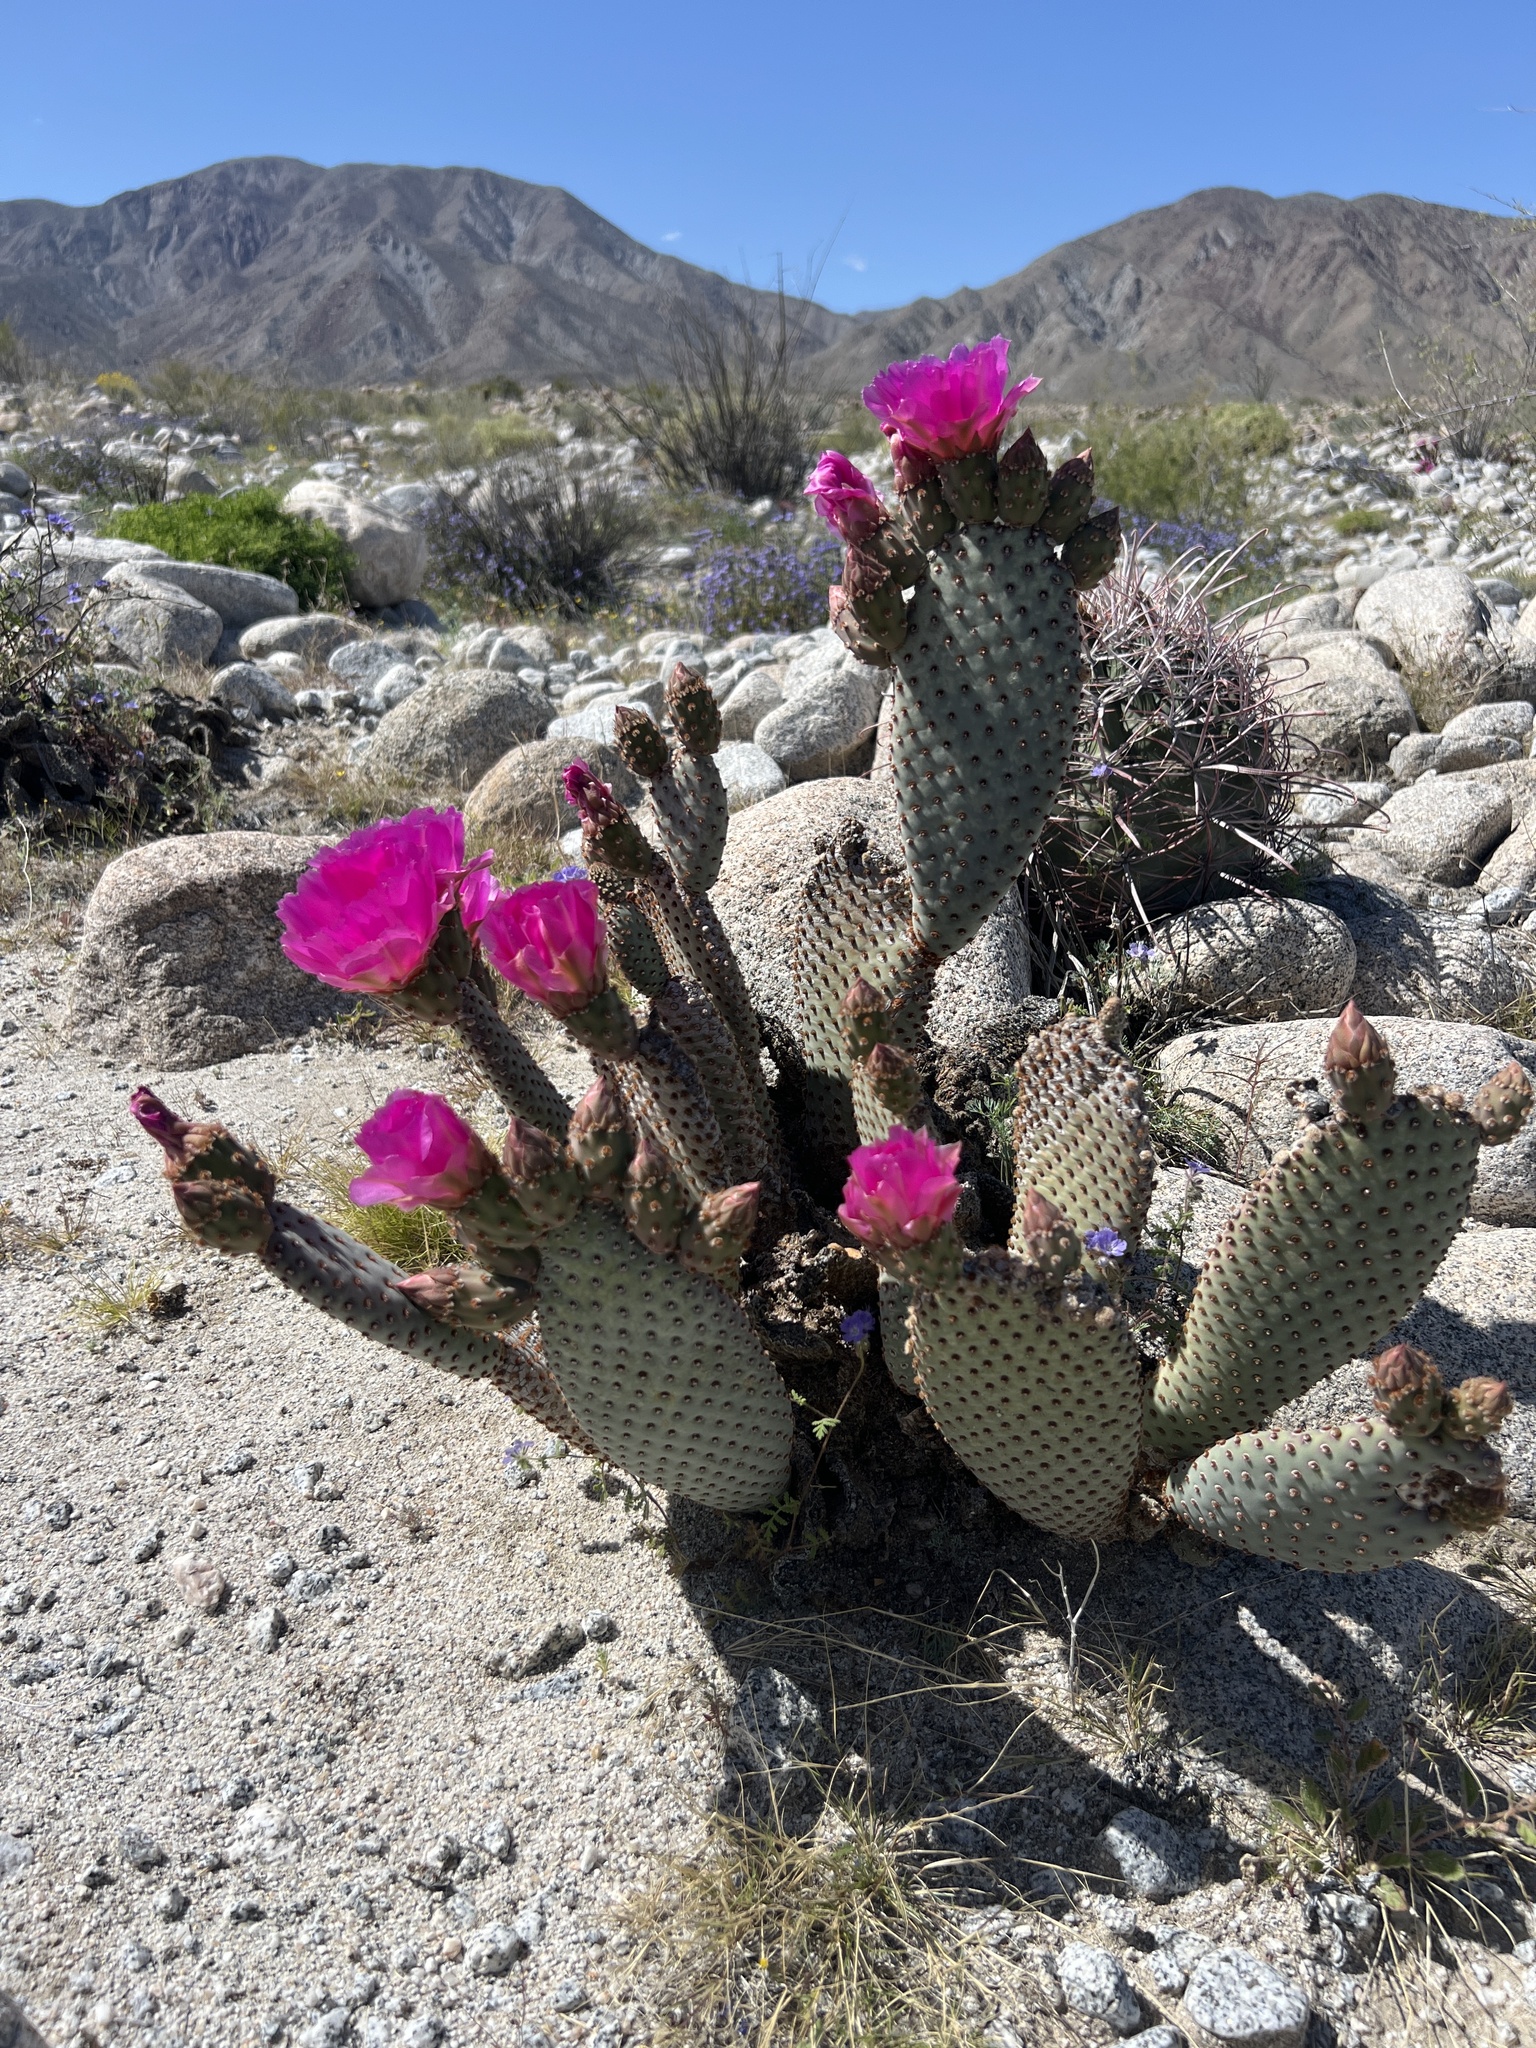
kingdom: Plantae
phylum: Tracheophyta
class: Magnoliopsida
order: Caryophyllales
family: Cactaceae
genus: Opuntia
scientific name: Opuntia basilaris
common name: Beavertail prickly-pear
